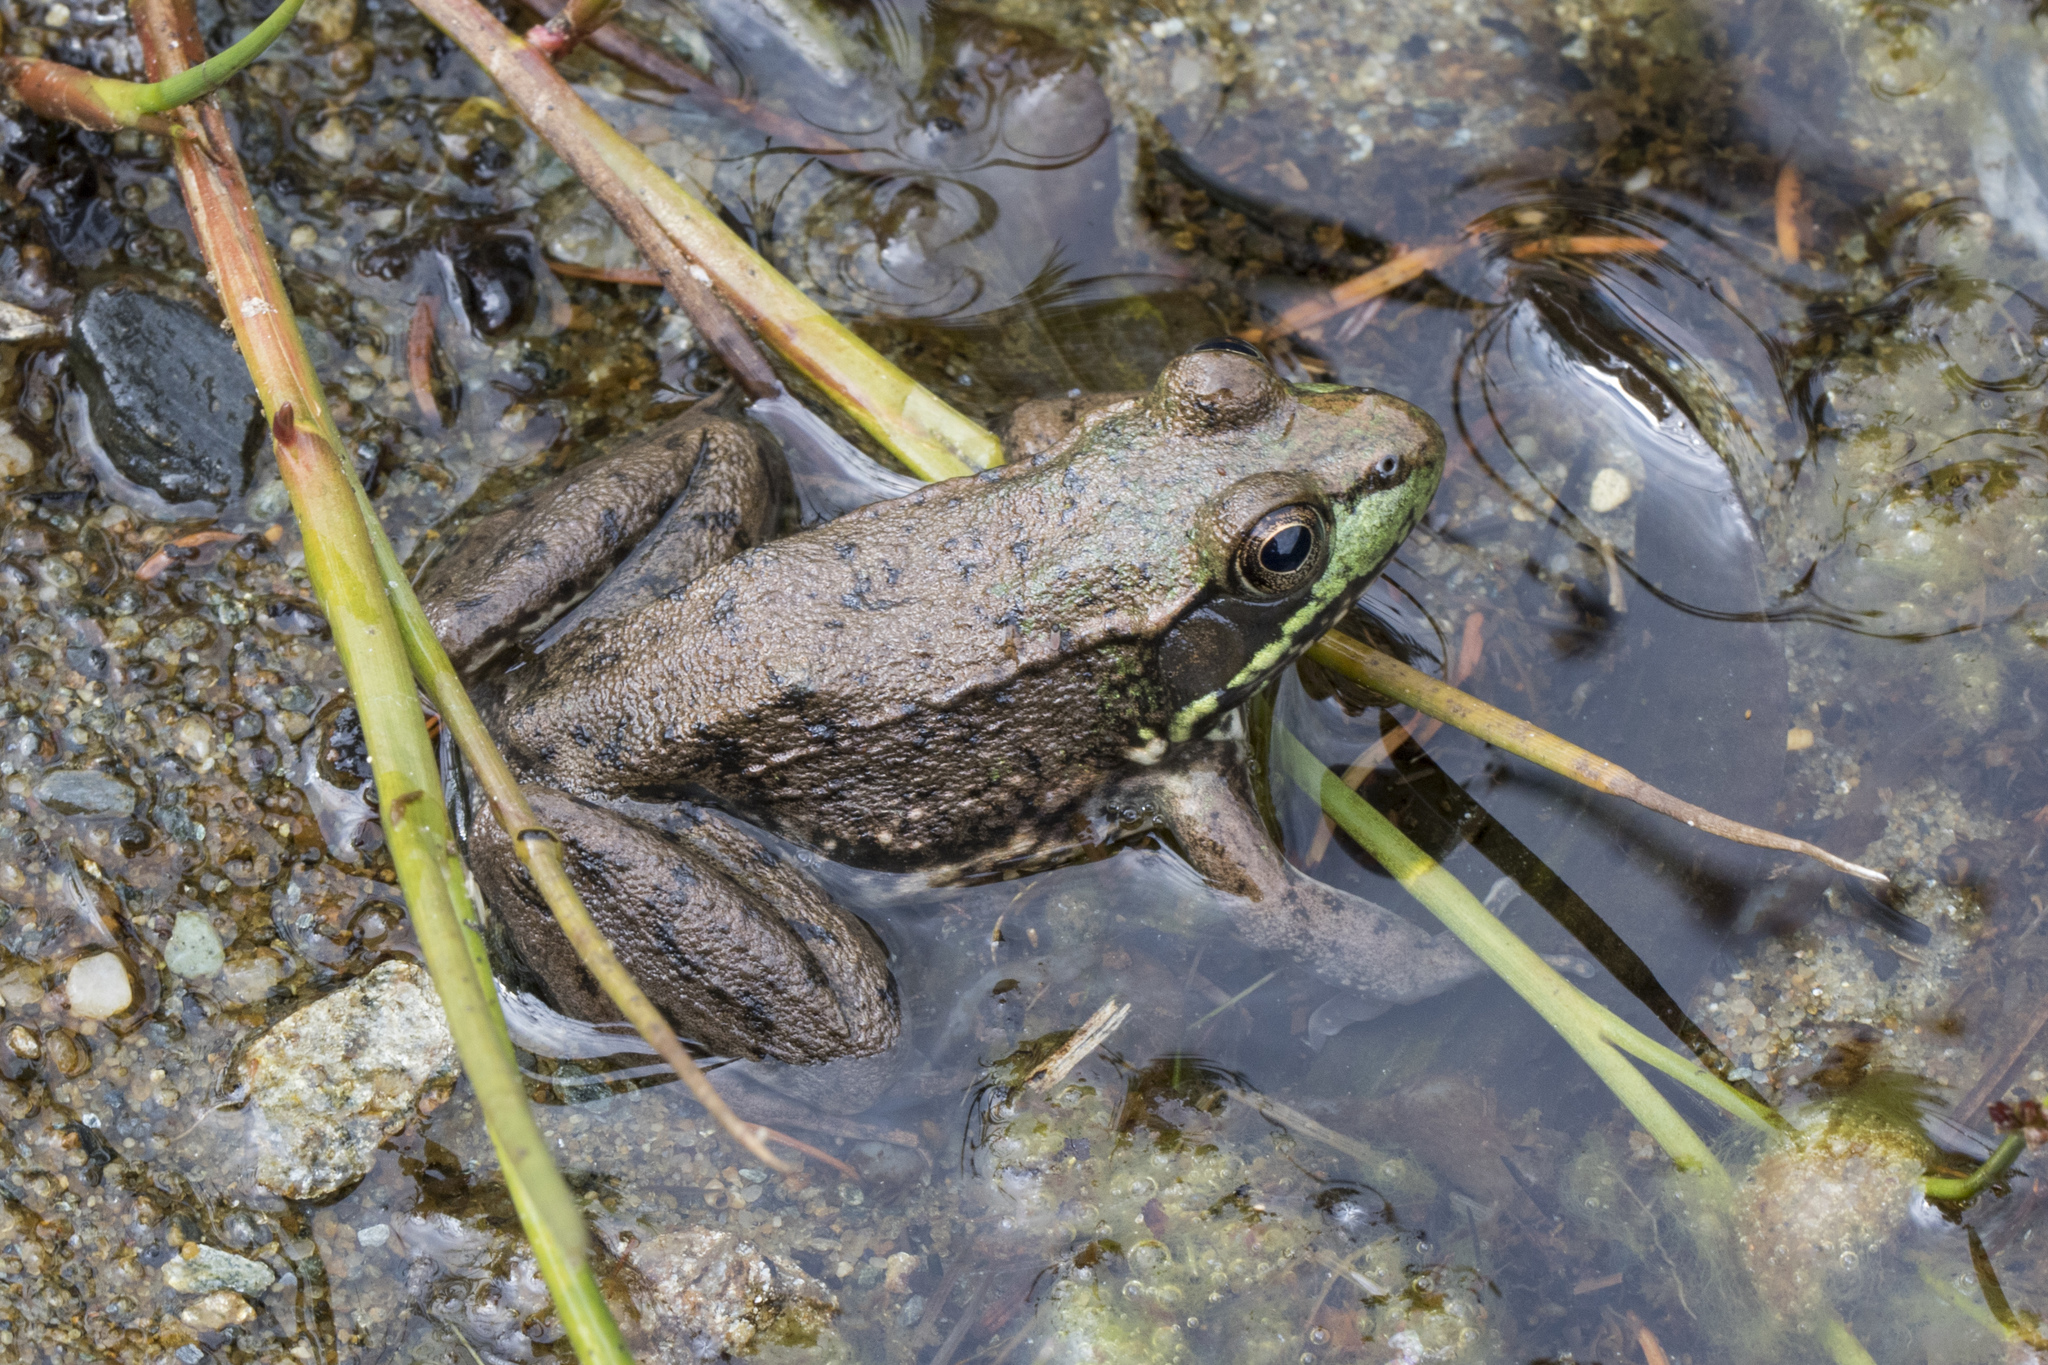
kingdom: Animalia
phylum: Chordata
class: Amphibia
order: Anura
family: Ranidae
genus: Lithobates
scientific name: Lithobates clamitans
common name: Green frog
